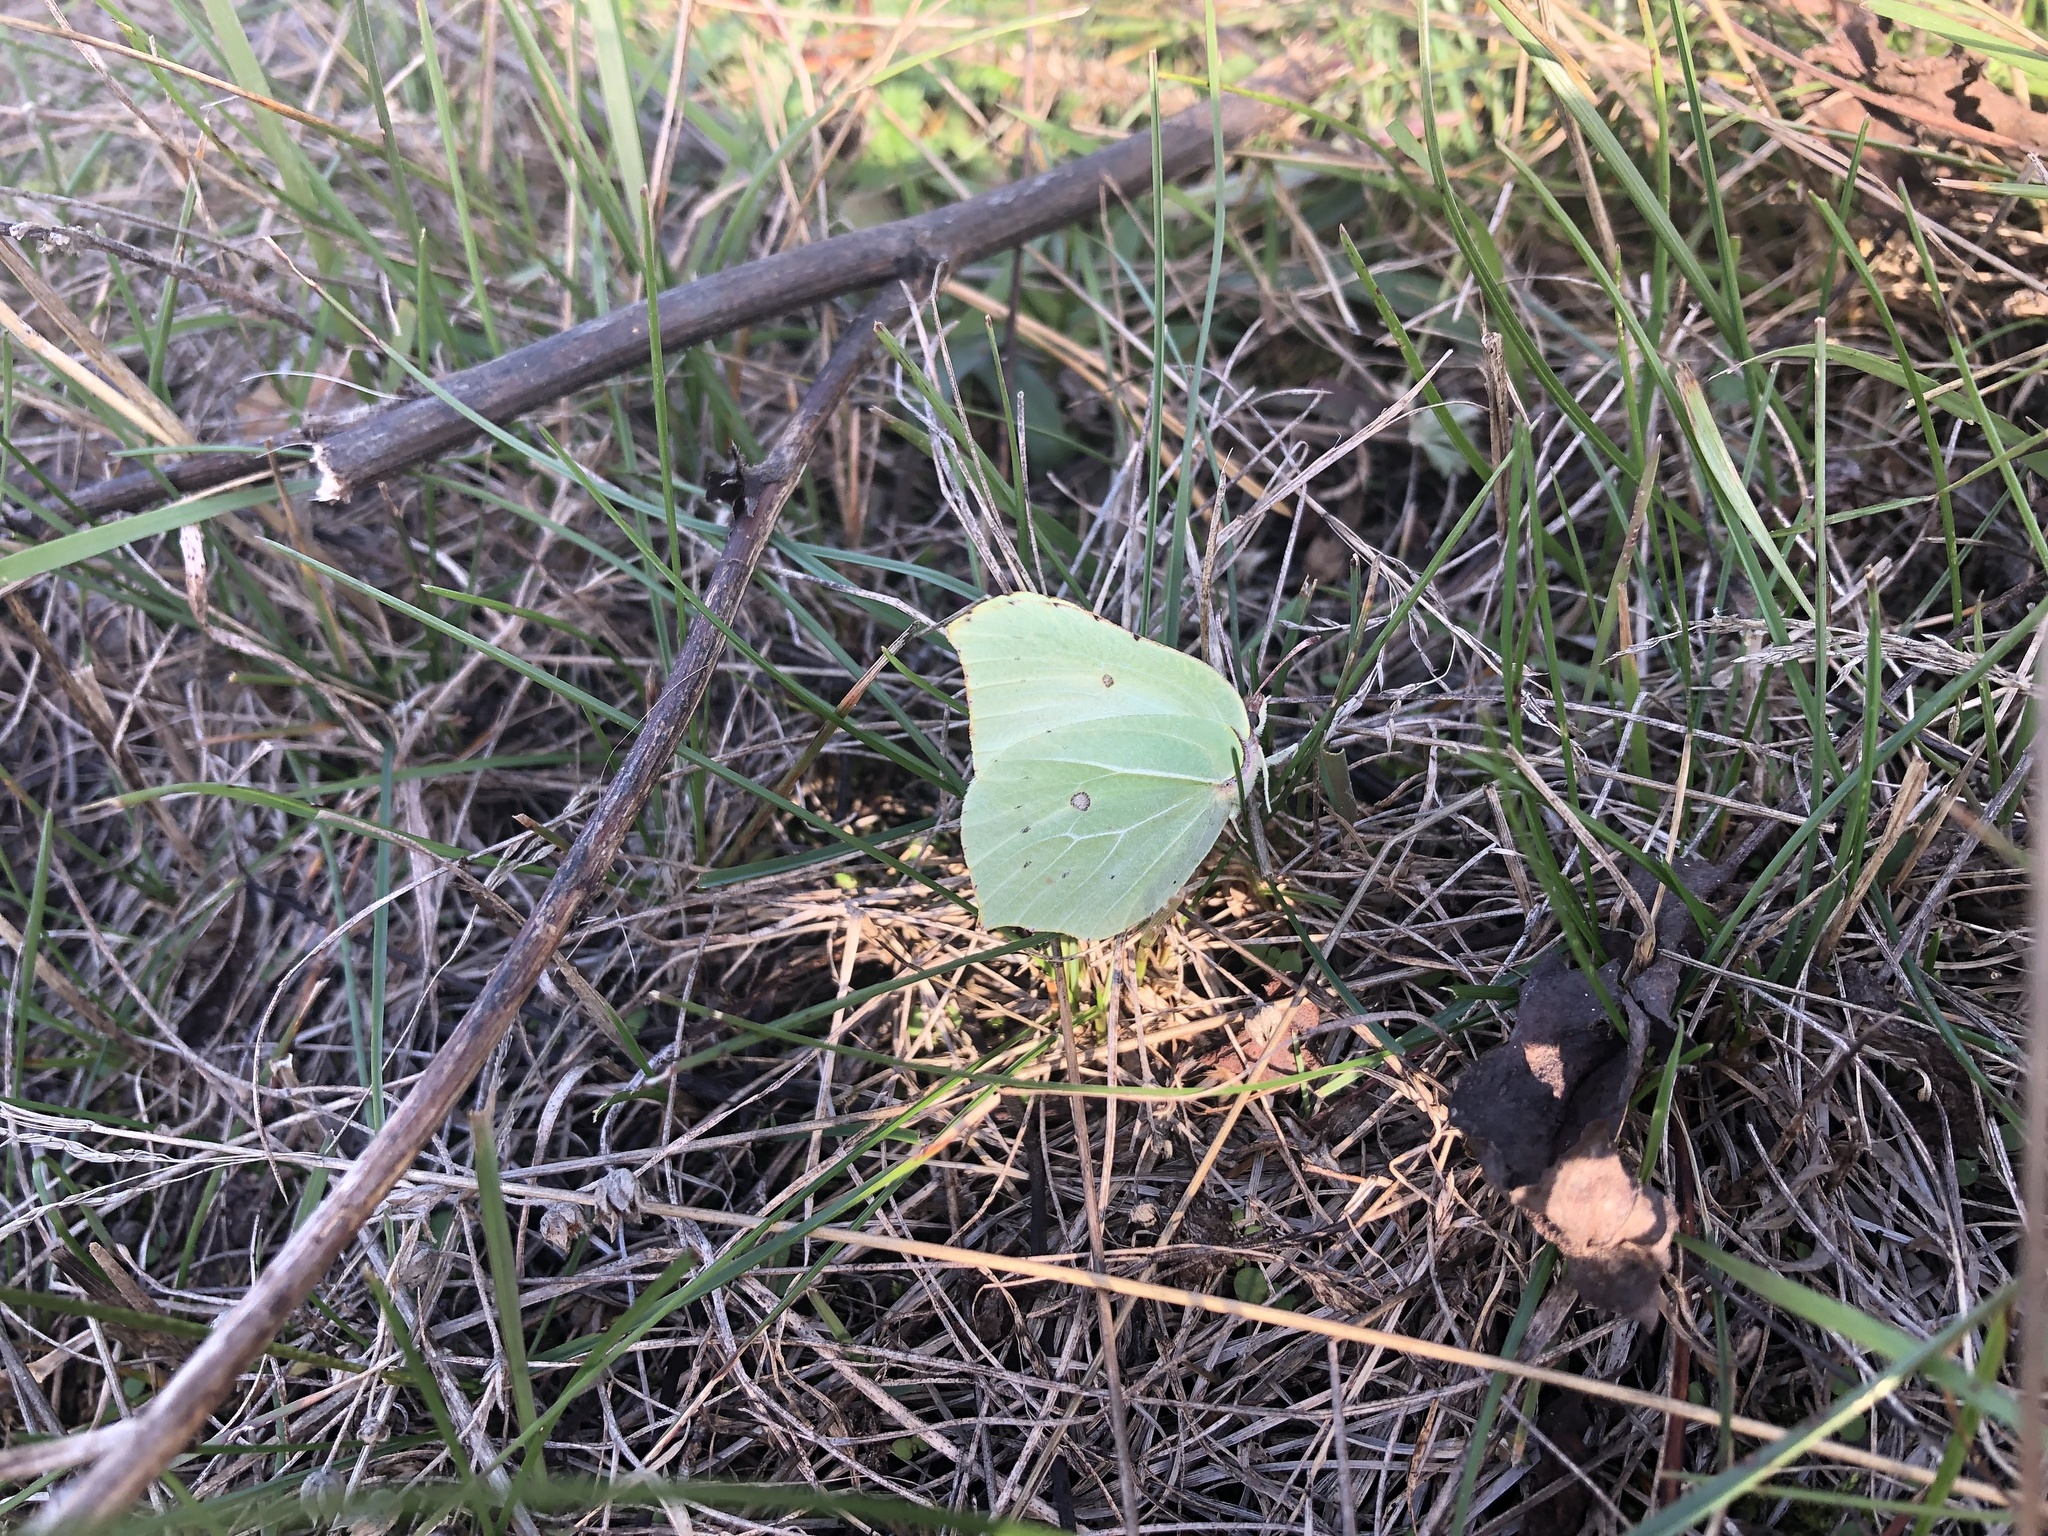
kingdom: Animalia
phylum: Arthropoda
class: Insecta
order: Lepidoptera
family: Pieridae
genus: Gonepteryx
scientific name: Gonepteryx rhamni
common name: Brimstone
